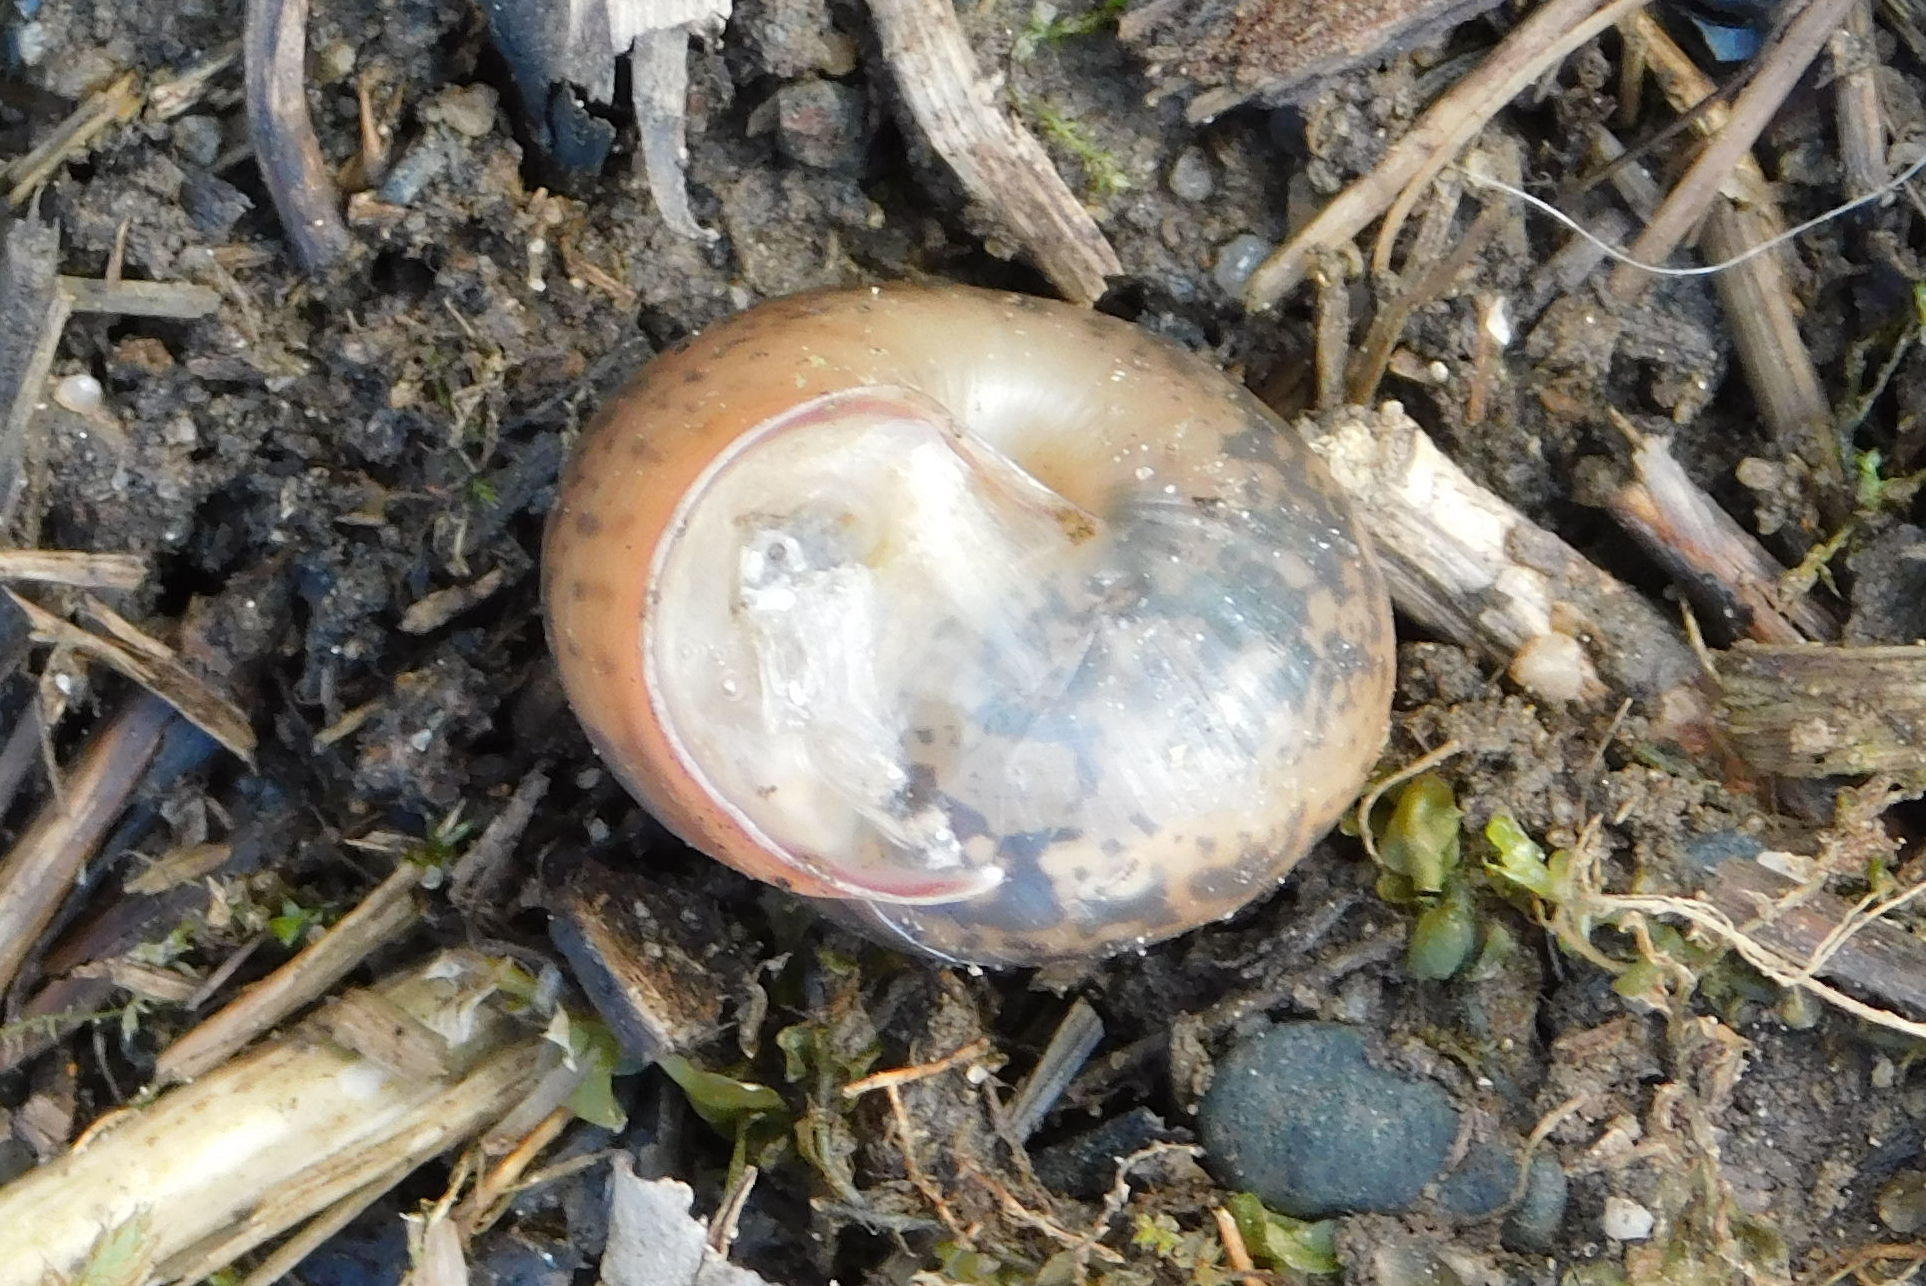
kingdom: Animalia
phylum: Mollusca
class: Gastropoda
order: Stylommatophora
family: Camaenidae
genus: Fruticicola
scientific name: Fruticicola fruticum
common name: Bush snail
